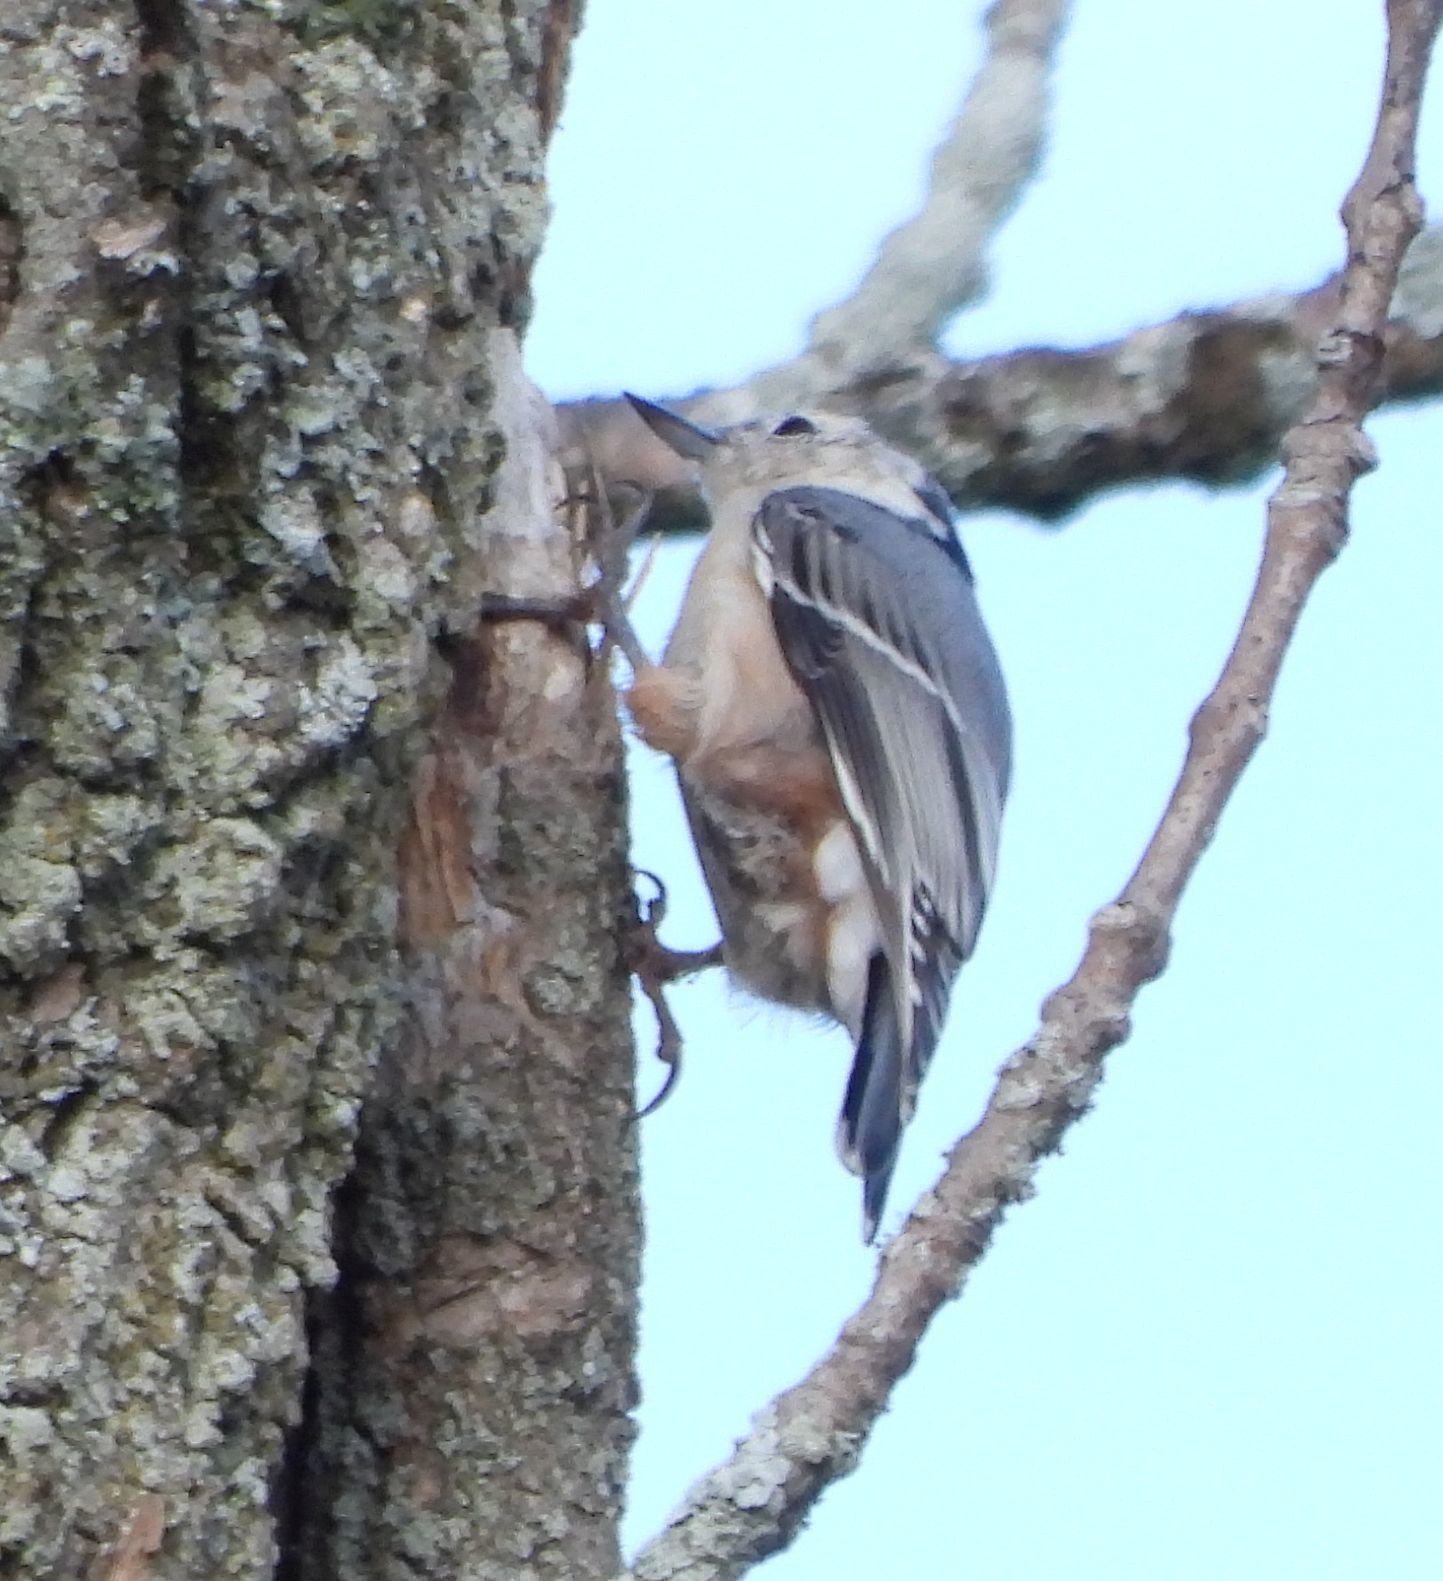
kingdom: Animalia
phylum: Chordata
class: Aves
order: Passeriformes
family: Sittidae
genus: Sitta
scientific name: Sitta carolinensis
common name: White-breasted nuthatch
